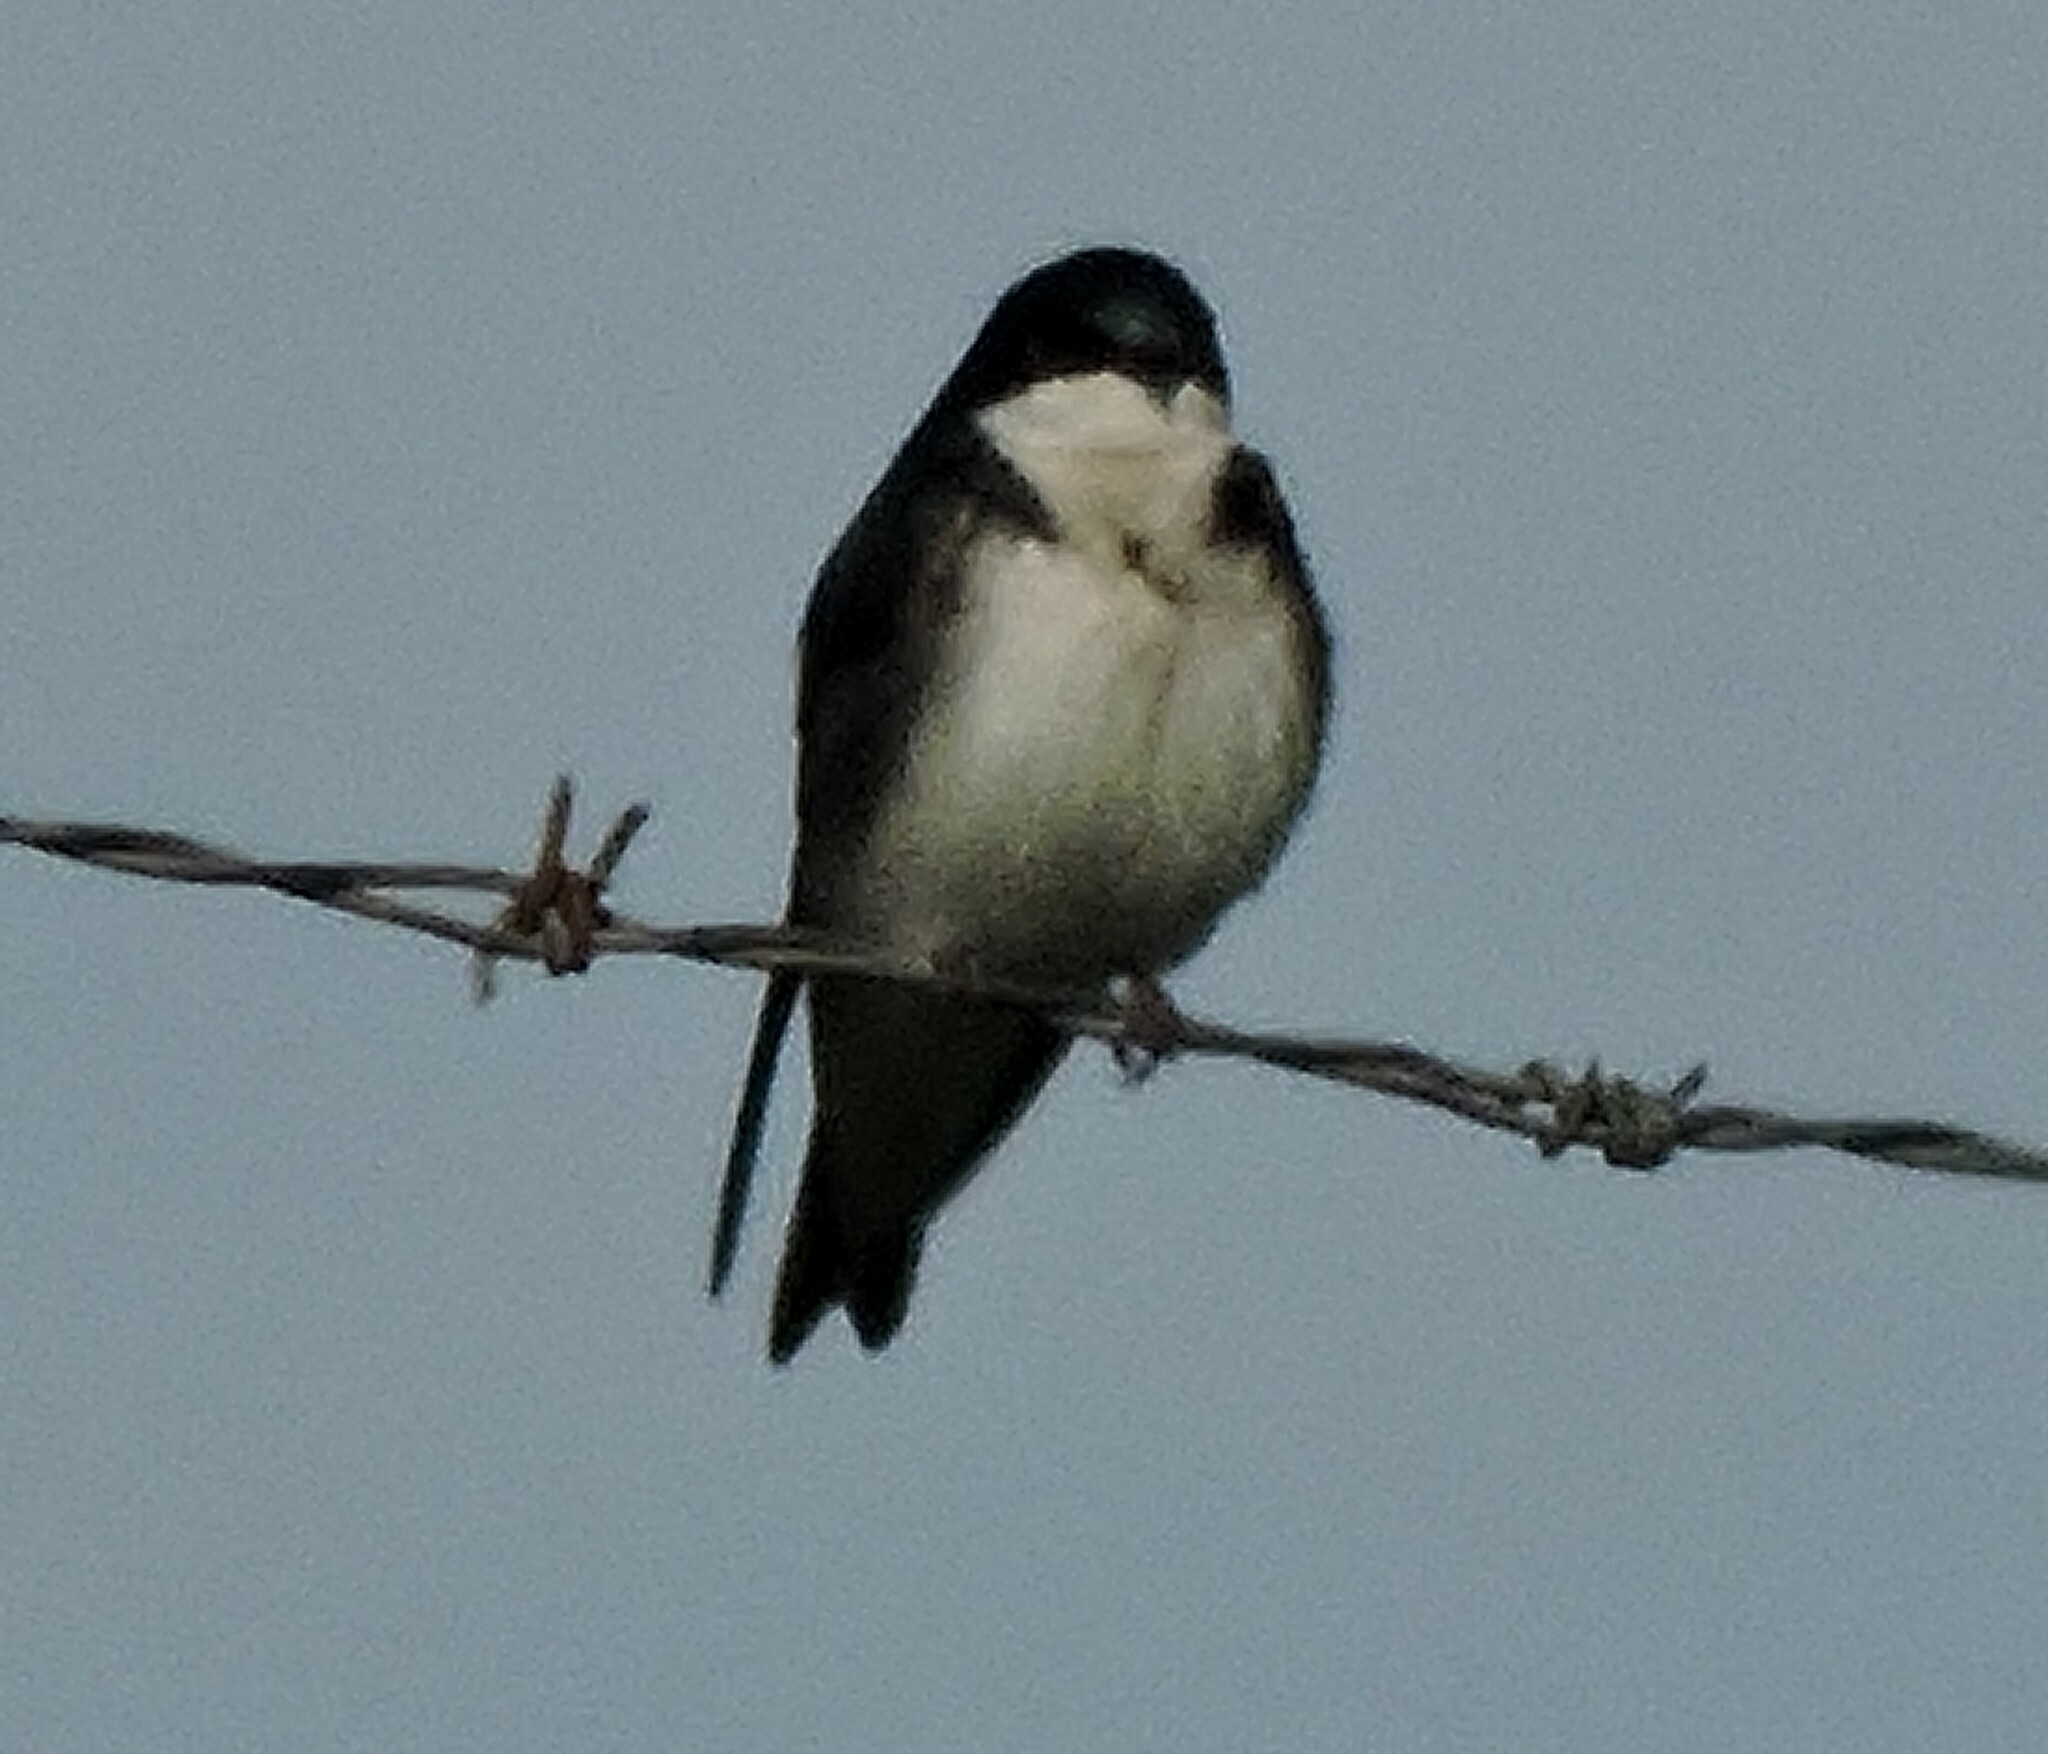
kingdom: Animalia
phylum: Chordata
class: Aves
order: Passeriformes
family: Hirundinidae
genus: Tachycineta
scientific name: Tachycineta bicolor
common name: Tree swallow
